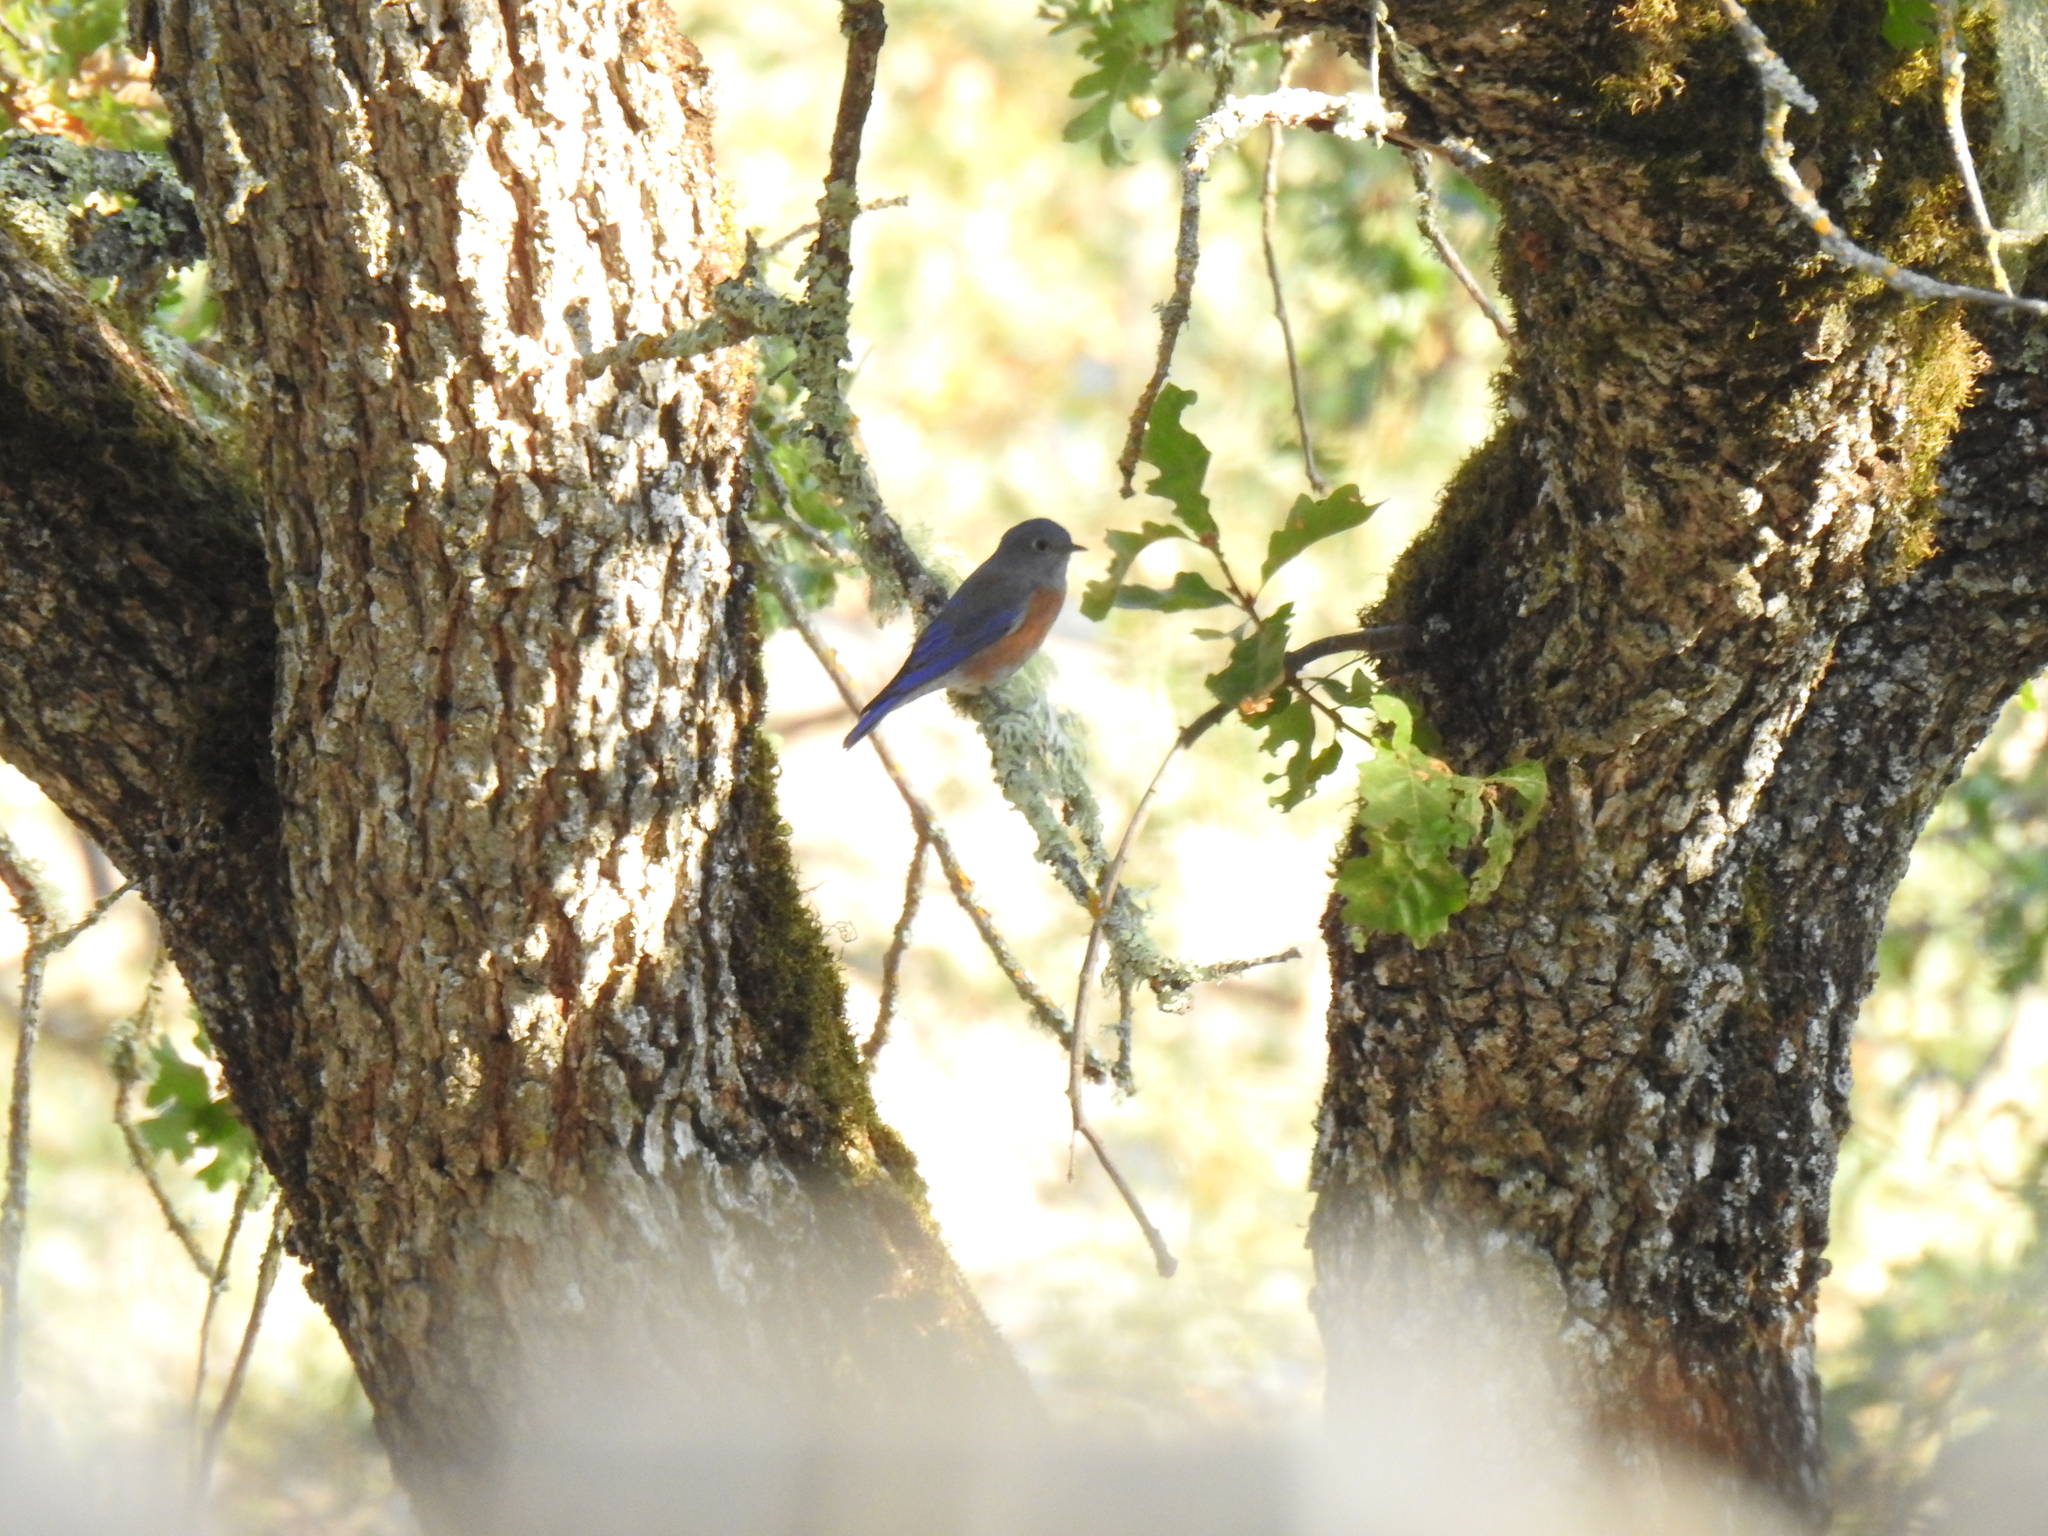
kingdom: Animalia
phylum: Chordata
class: Aves
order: Passeriformes
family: Turdidae
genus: Sialia
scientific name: Sialia mexicana
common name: Western bluebird
